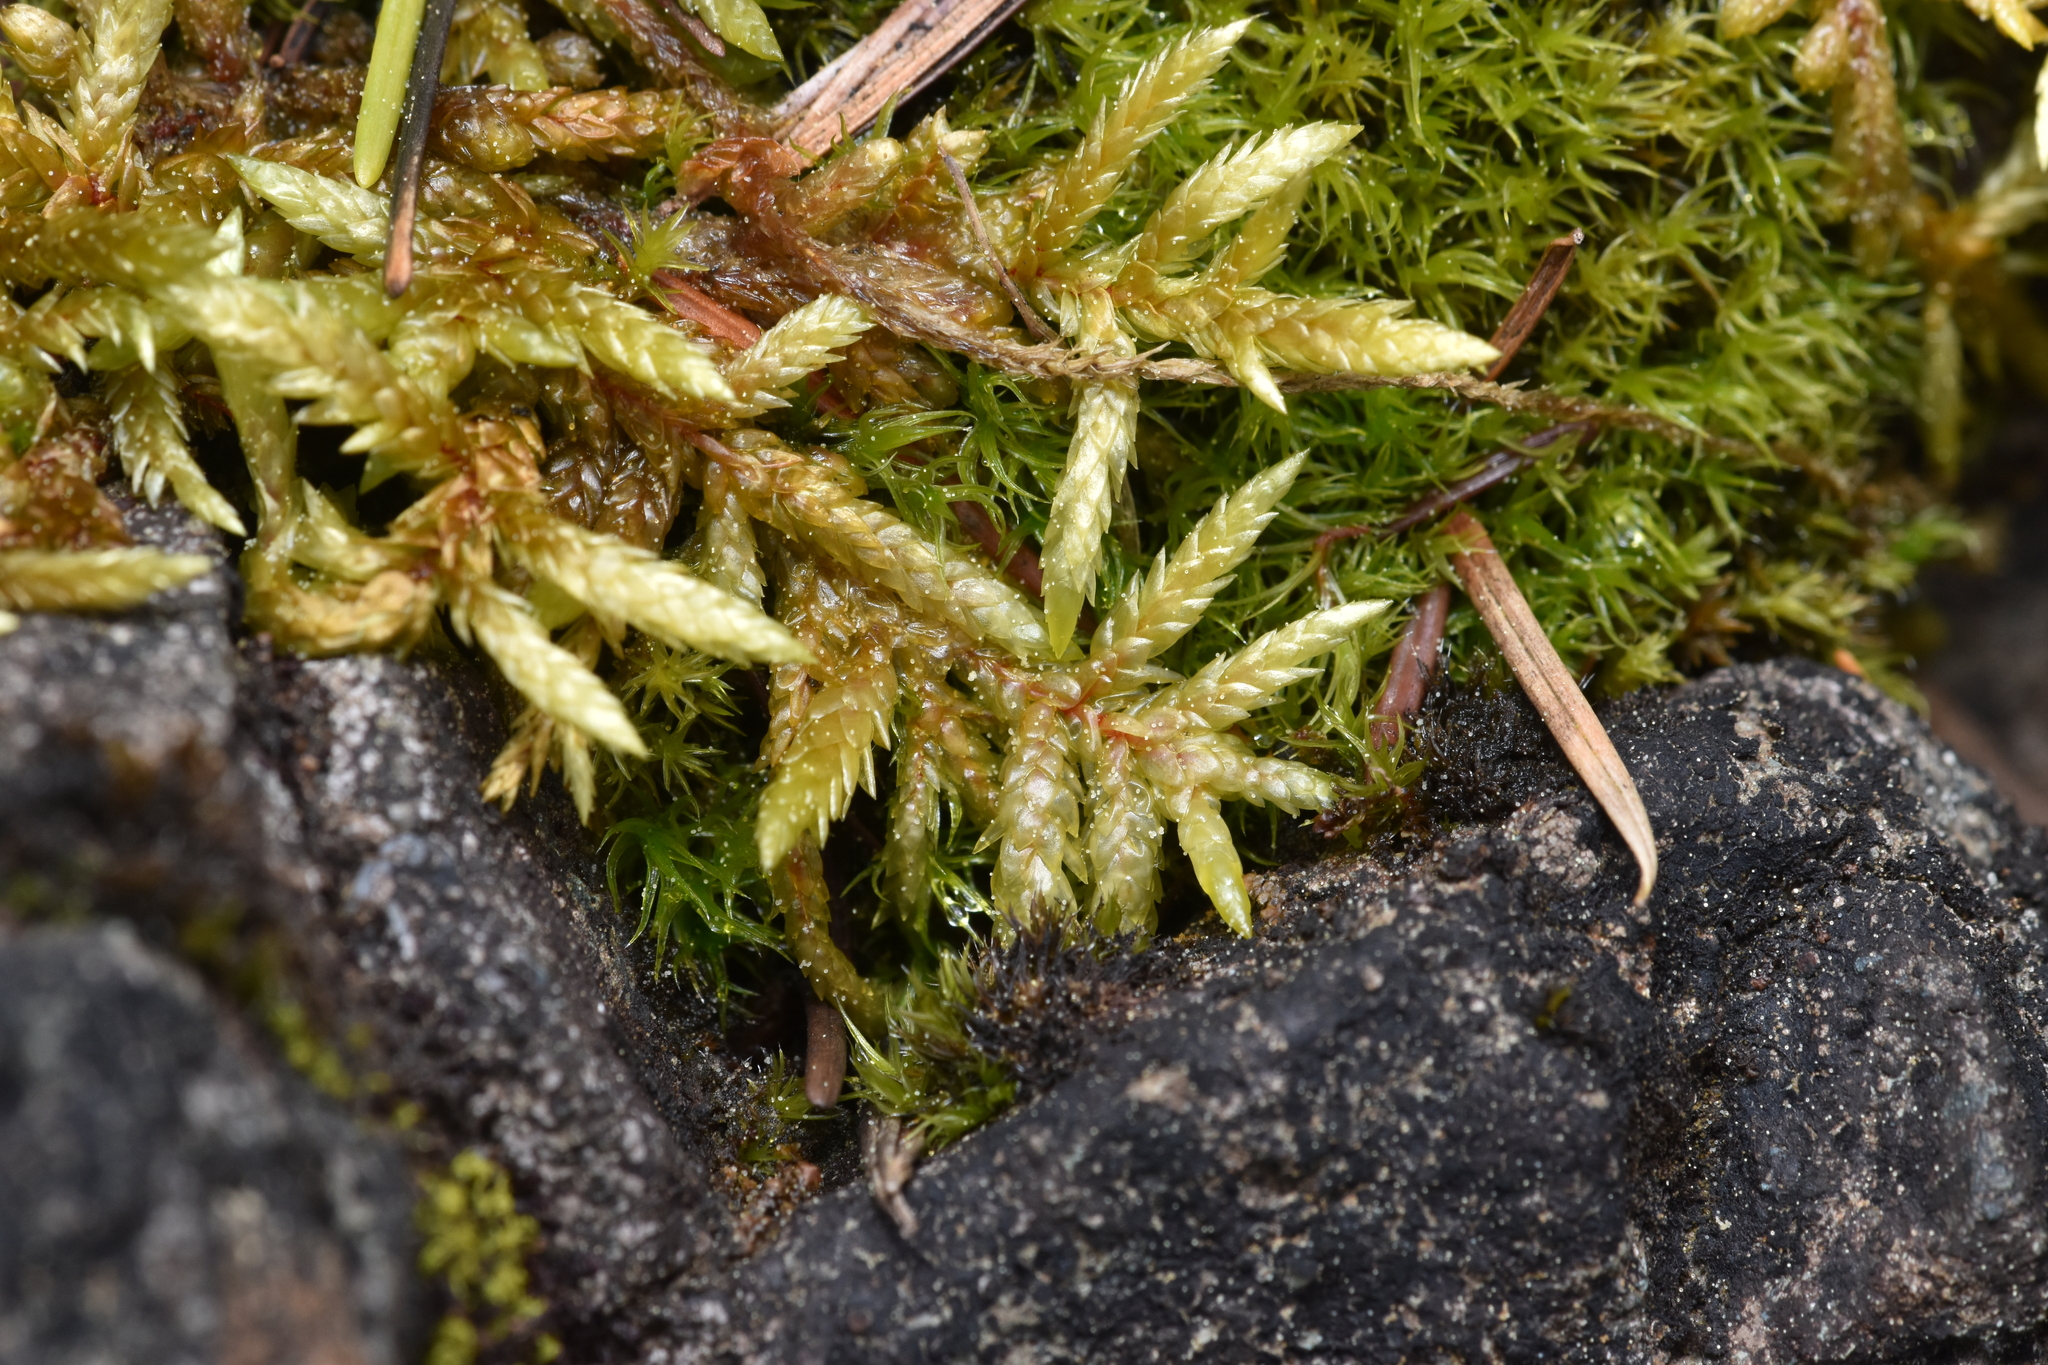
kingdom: Plantae
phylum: Bryophyta
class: Bryopsida
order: Hypnales
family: Hylocomiaceae
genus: Pleurozium
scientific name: Pleurozium schreberi
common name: Red-stemmed feather moss
